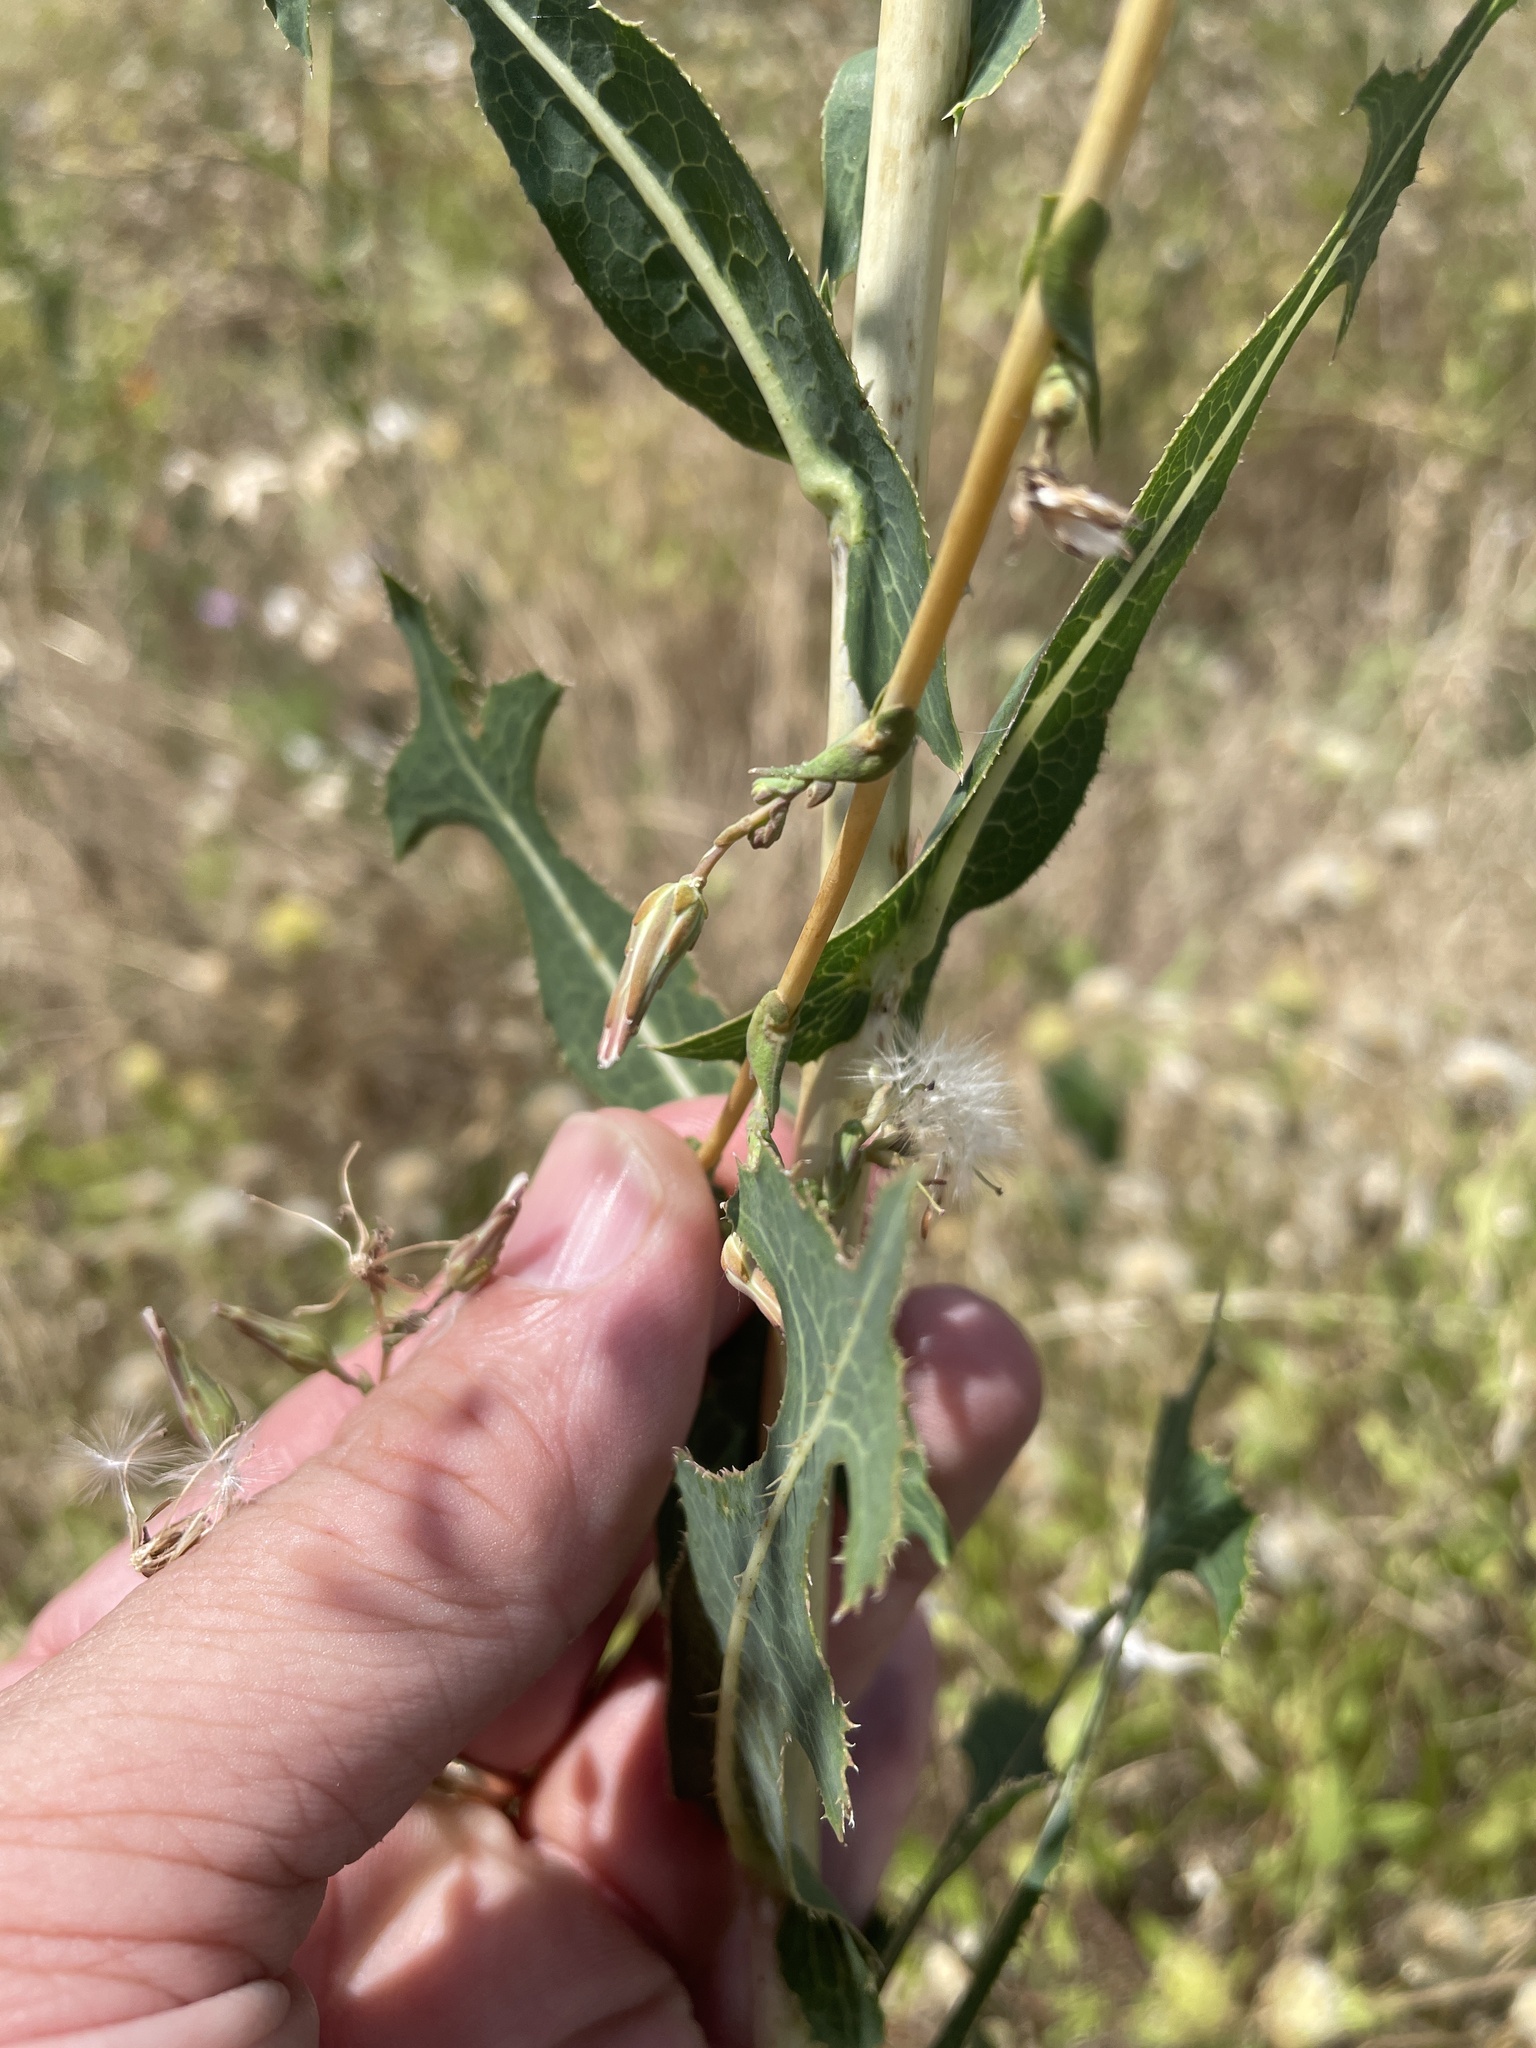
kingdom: Plantae
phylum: Tracheophyta
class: Magnoliopsida
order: Asterales
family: Asteraceae
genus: Lactuca
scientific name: Lactuca serriola
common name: Prickly lettuce
